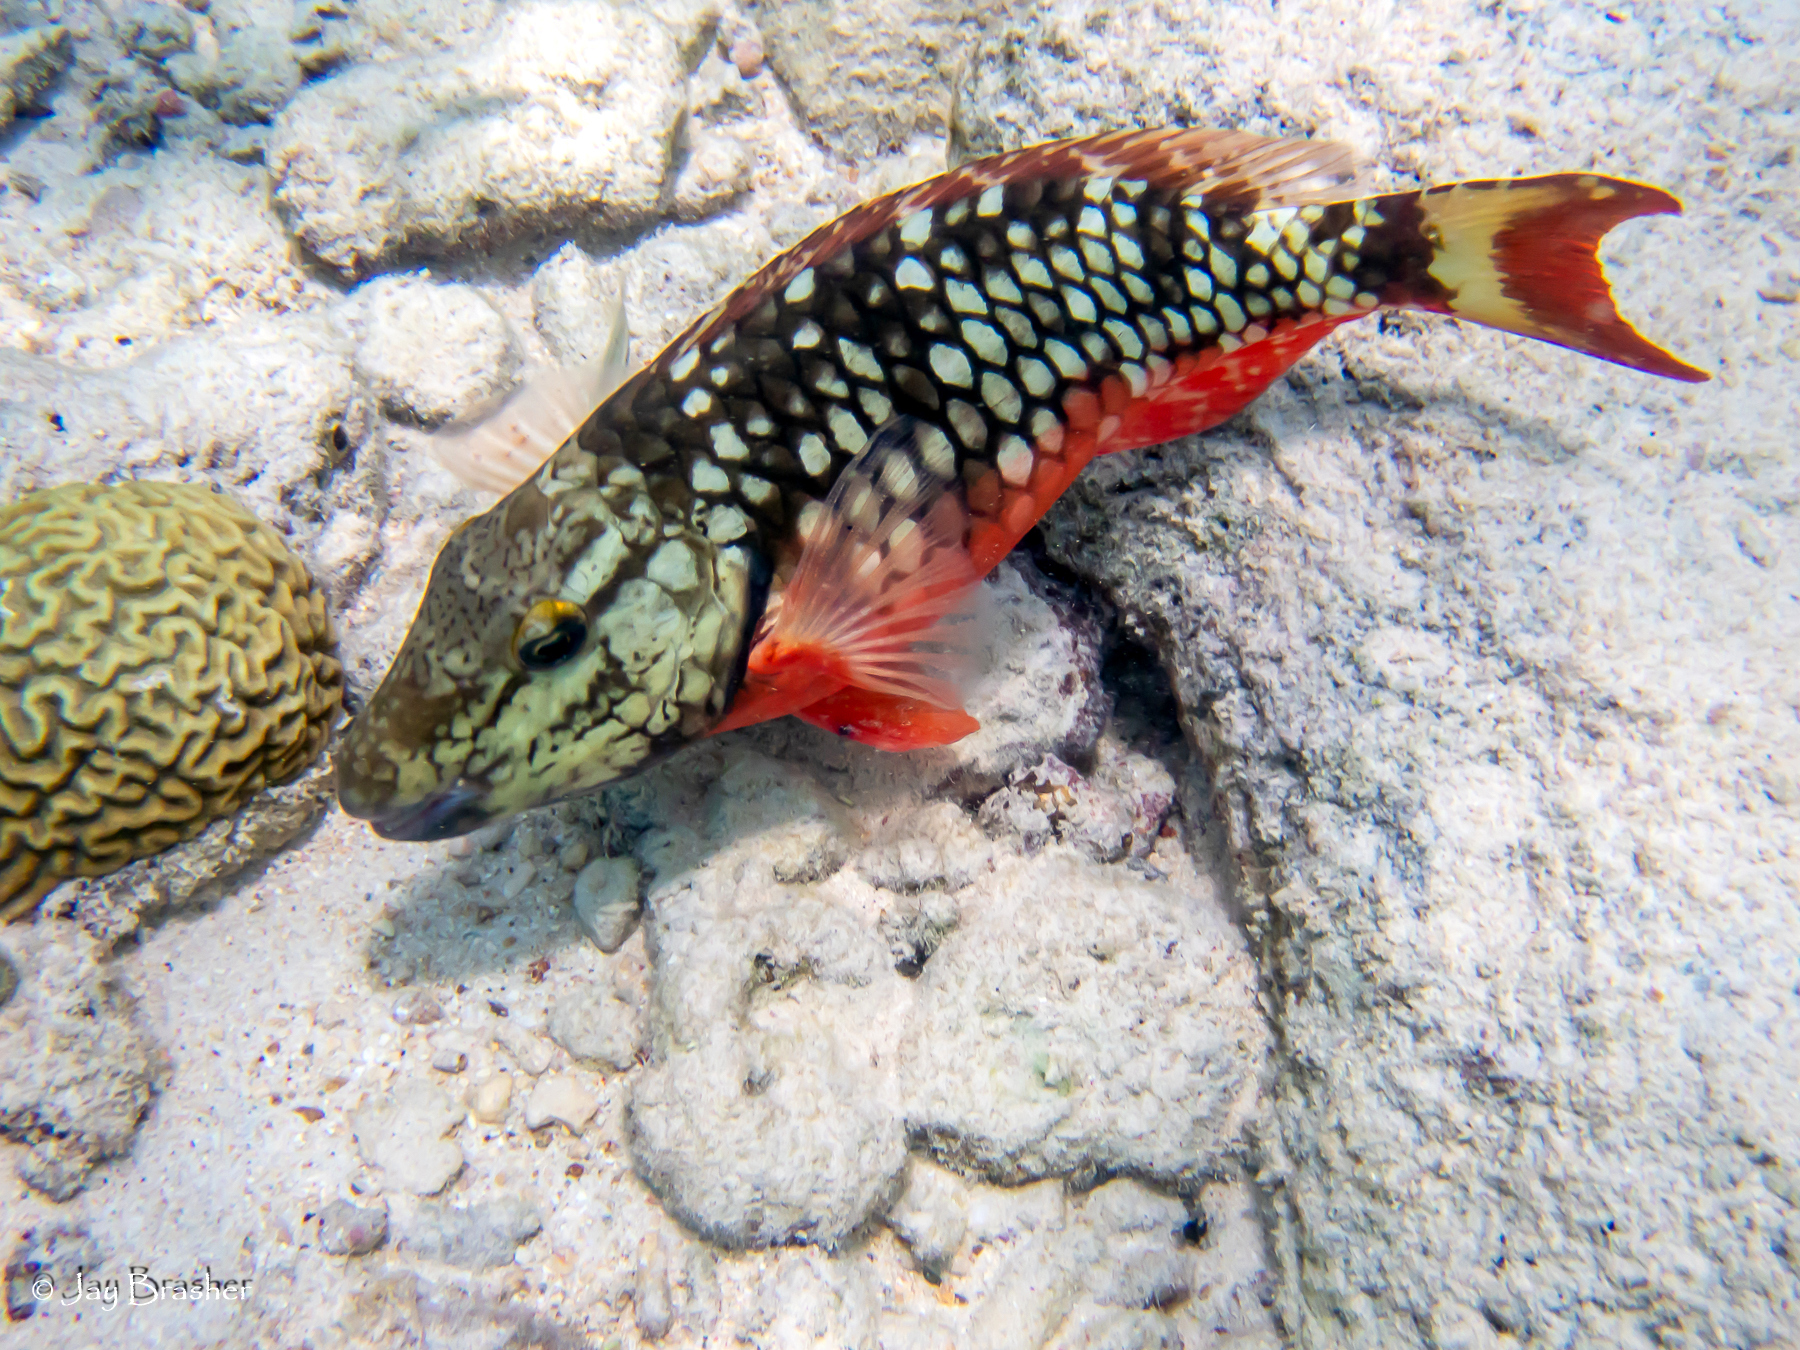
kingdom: Animalia
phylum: Chordata
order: Perciformes
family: Scaridae
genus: Sparisoma
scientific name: Sparisoma viride
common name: Stoplight parrotfish
